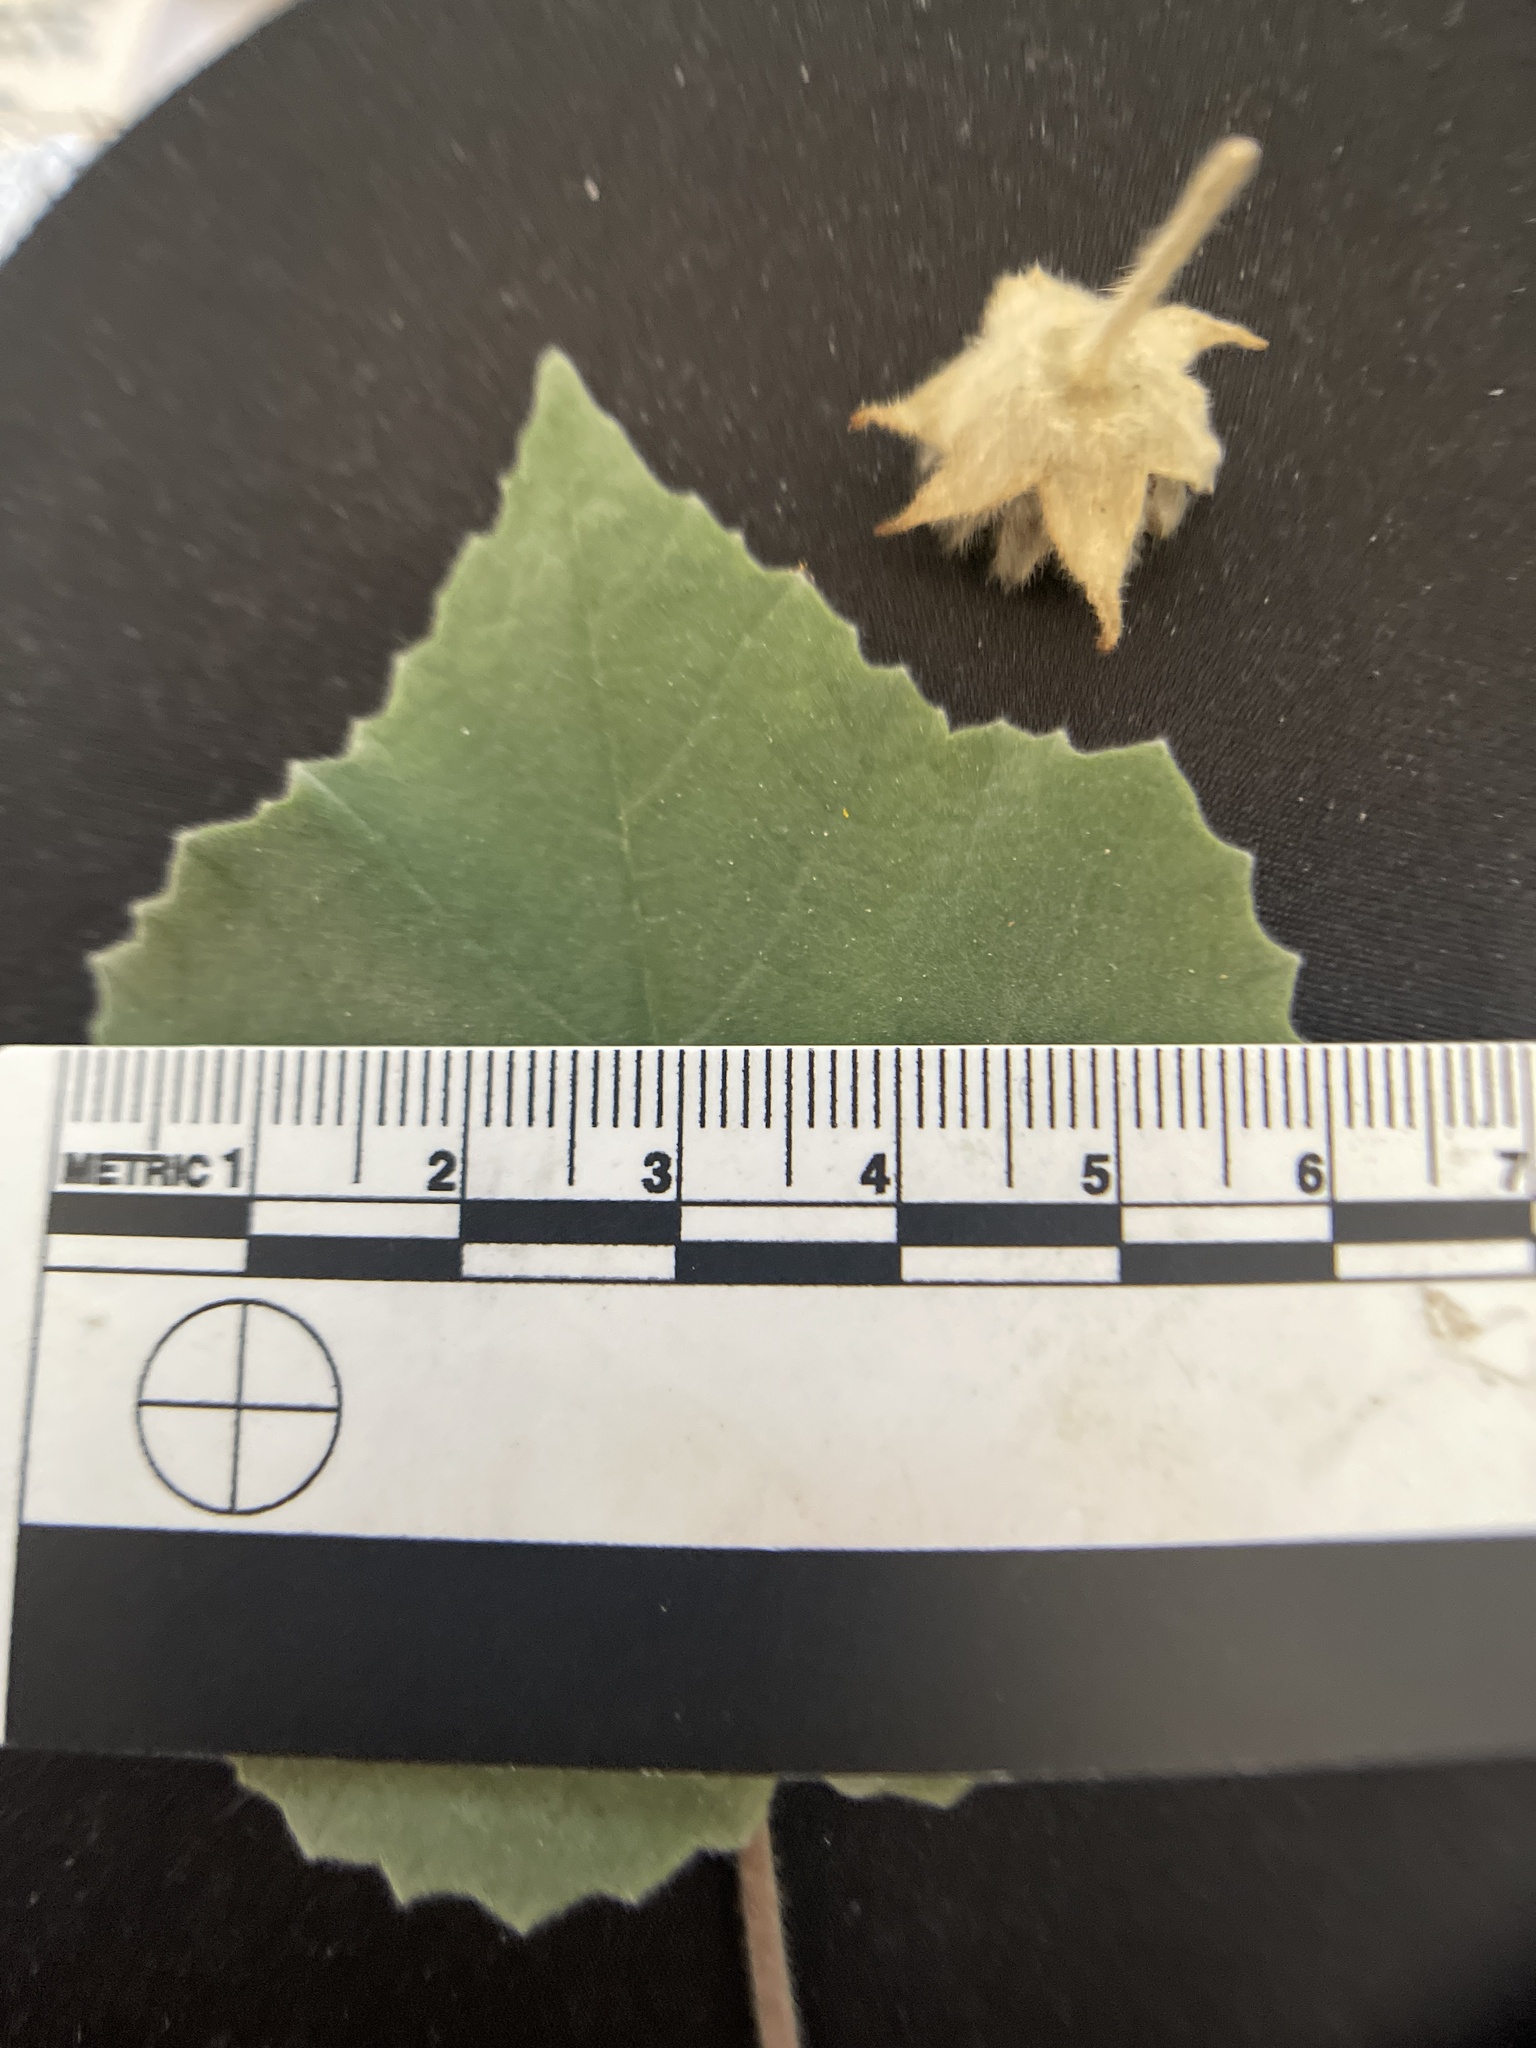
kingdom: Plantae
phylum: Tracheophyta
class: Magnoliopsida
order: Malvales
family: Malvaceae
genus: Abutilon
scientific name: Abutilon palmeri
